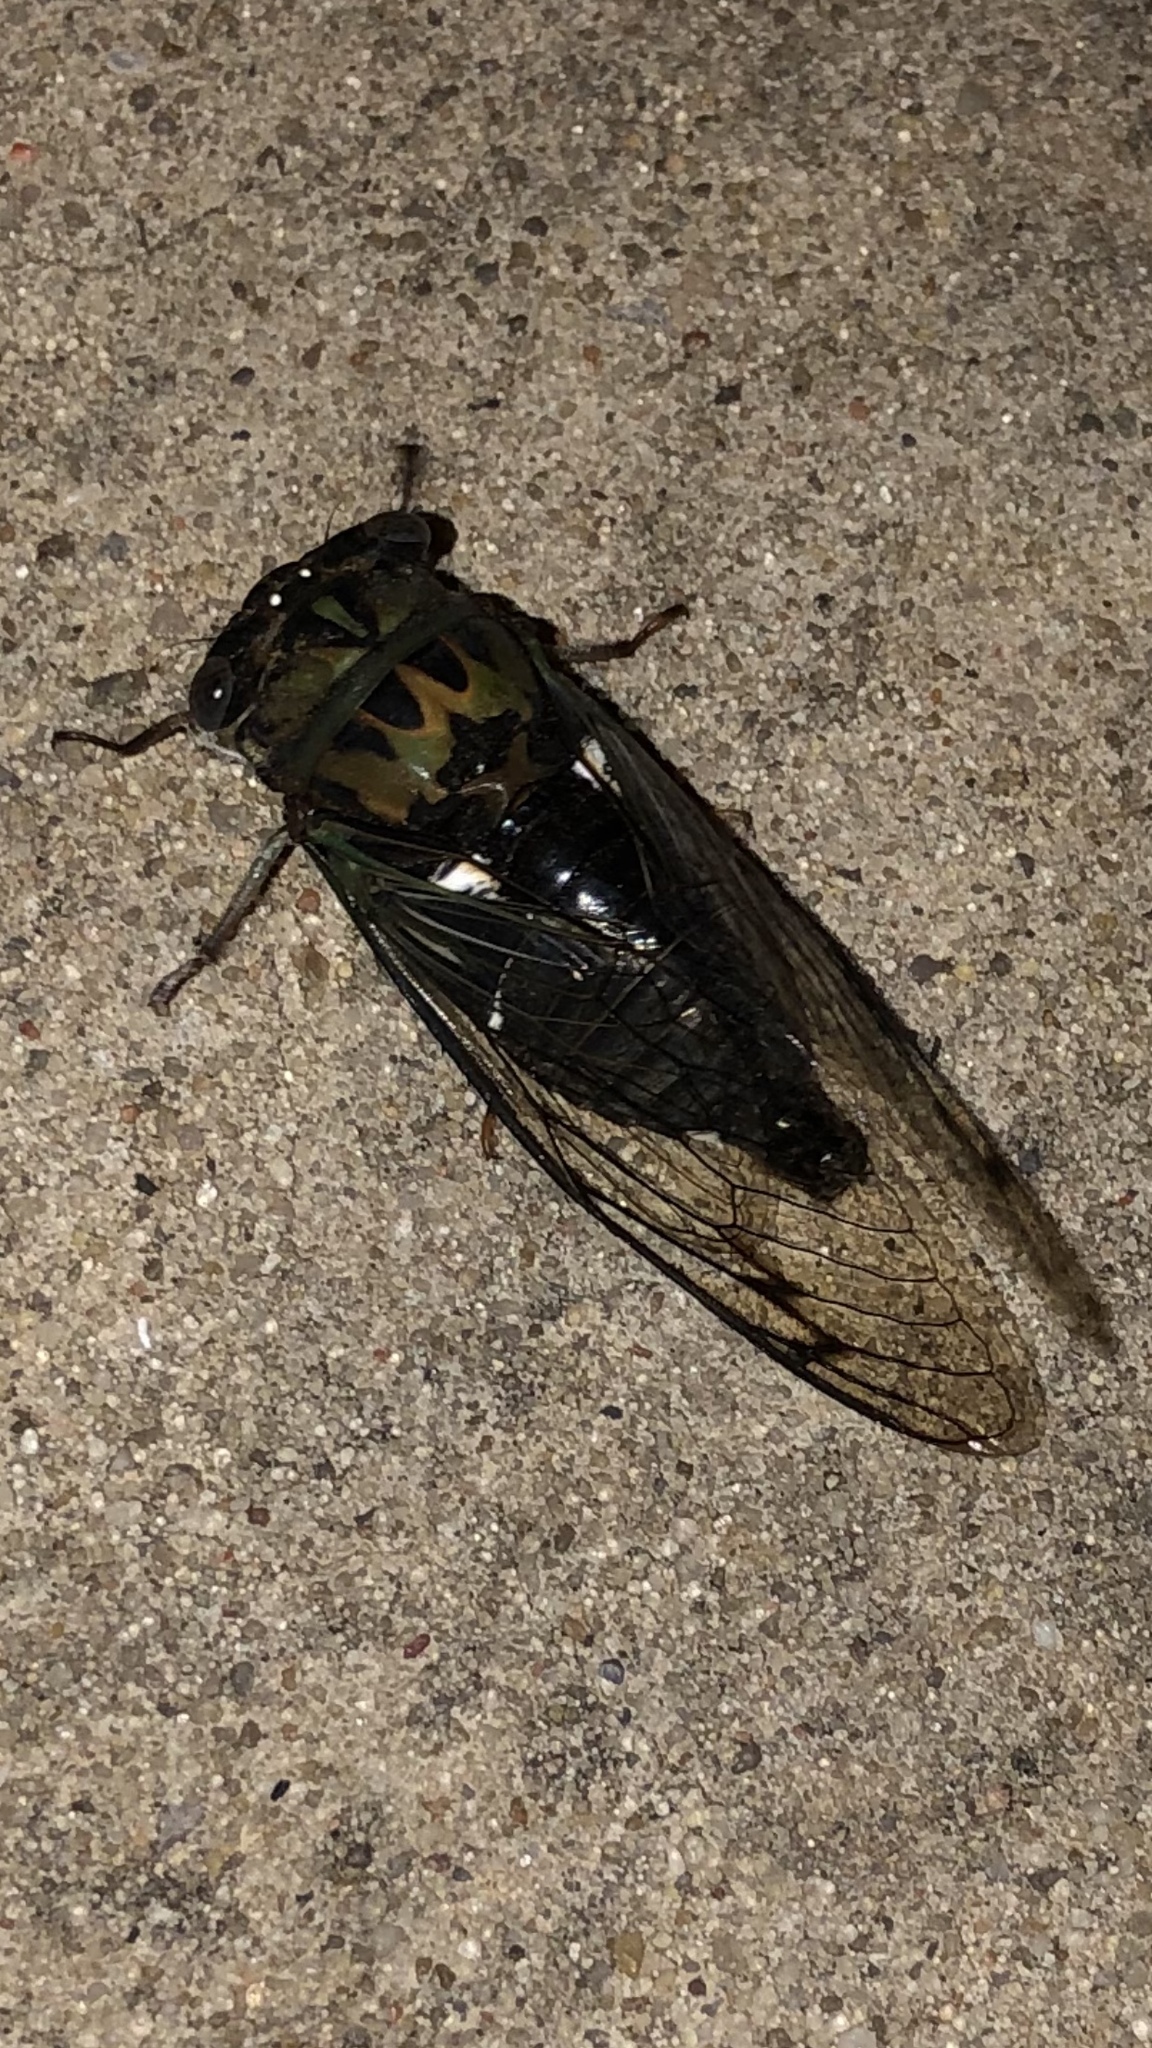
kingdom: Animalia
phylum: Arthropoda
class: Insecta
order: Hemiptera
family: Cicadidae
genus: Neotibicen
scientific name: Neotibicen pruinosus
